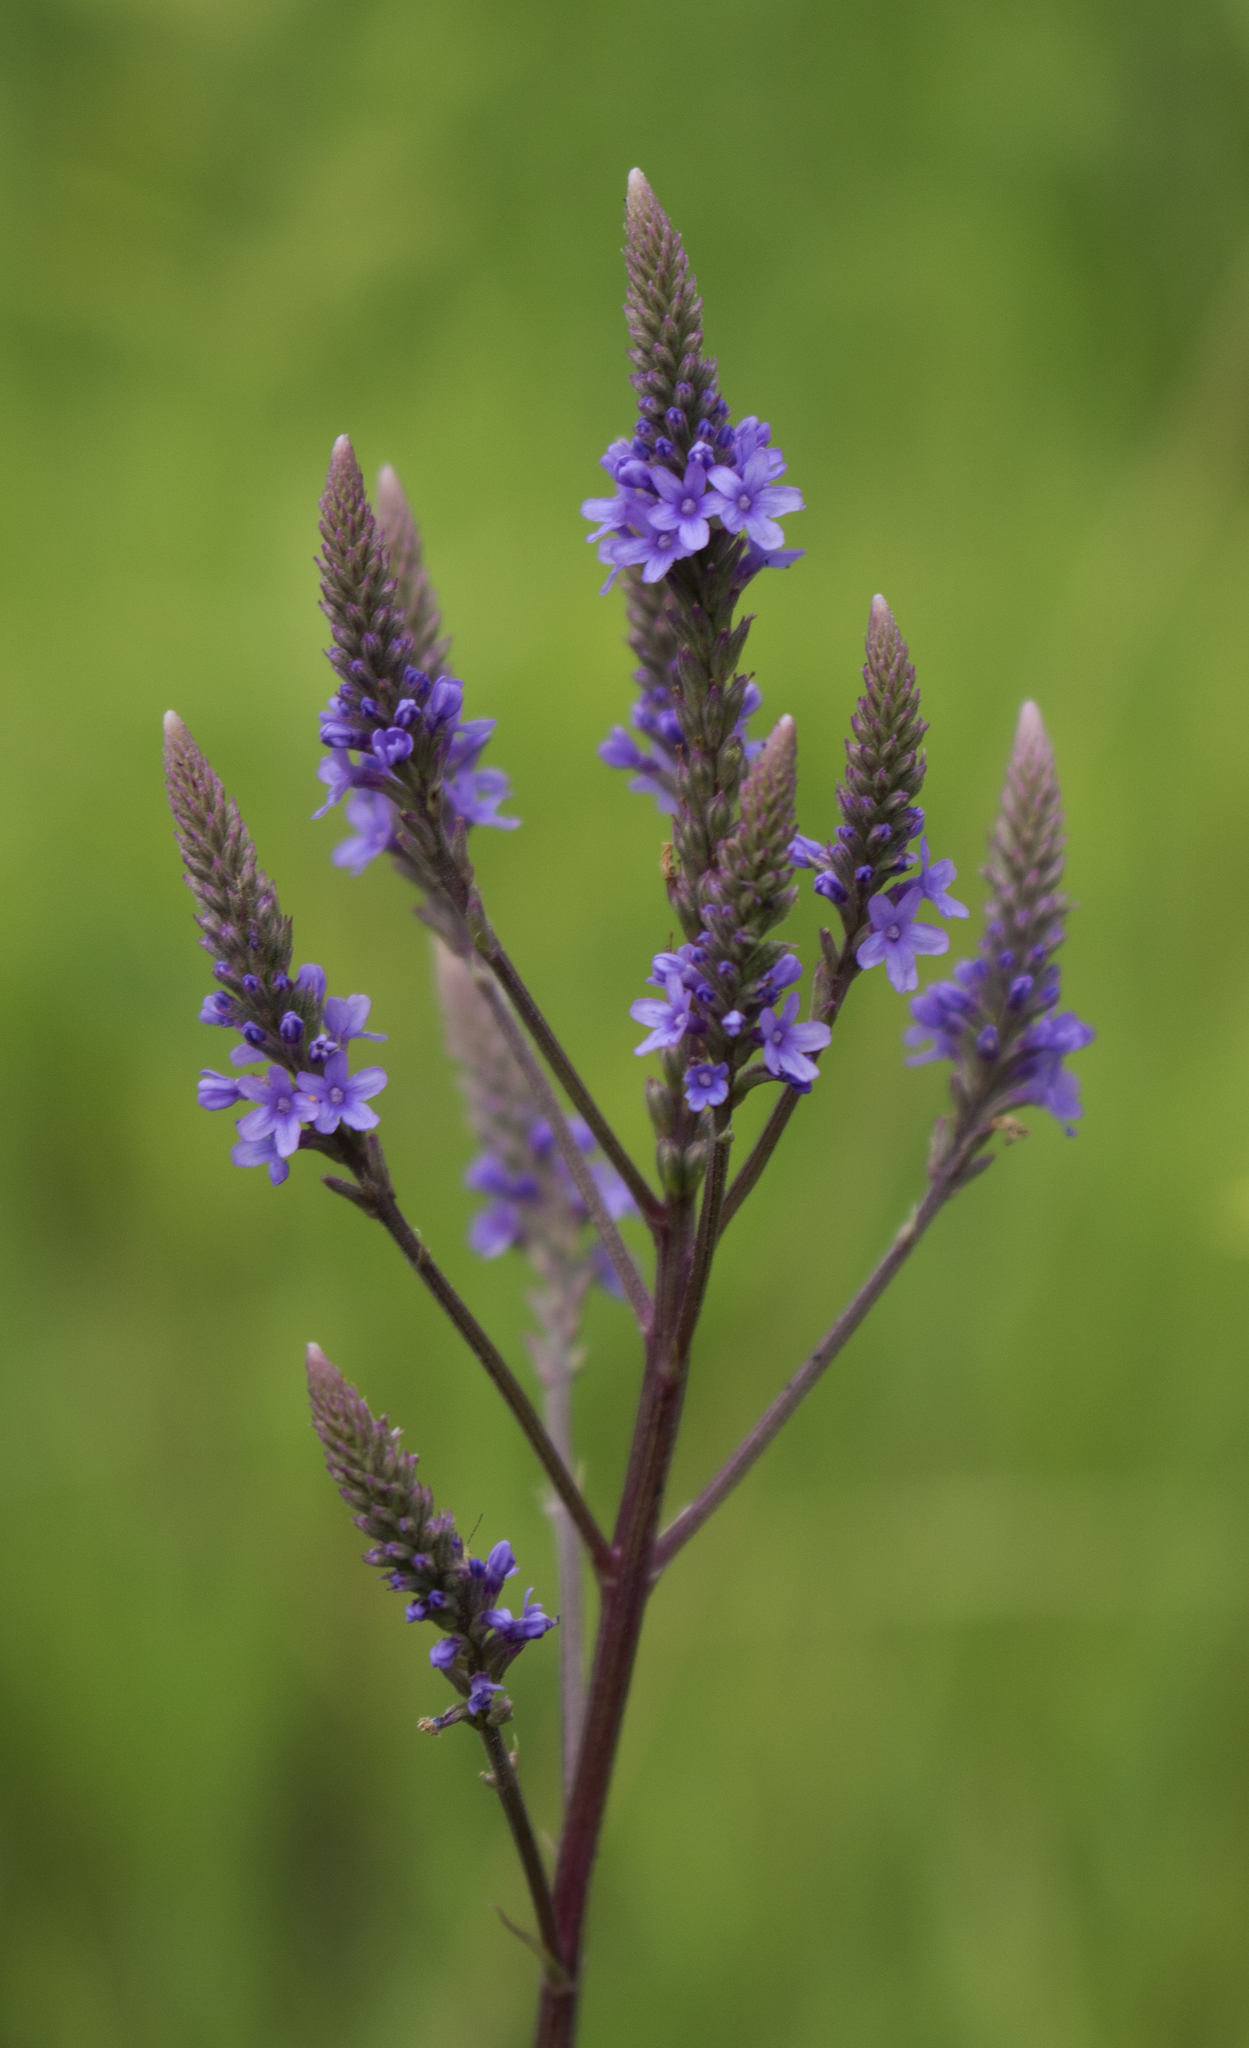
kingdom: Plantae
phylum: Tracheophyta
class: Magnoliopsida
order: Lamiales
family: Verbenaceae
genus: Verbena
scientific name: Verbena hastata
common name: American blue vervain
